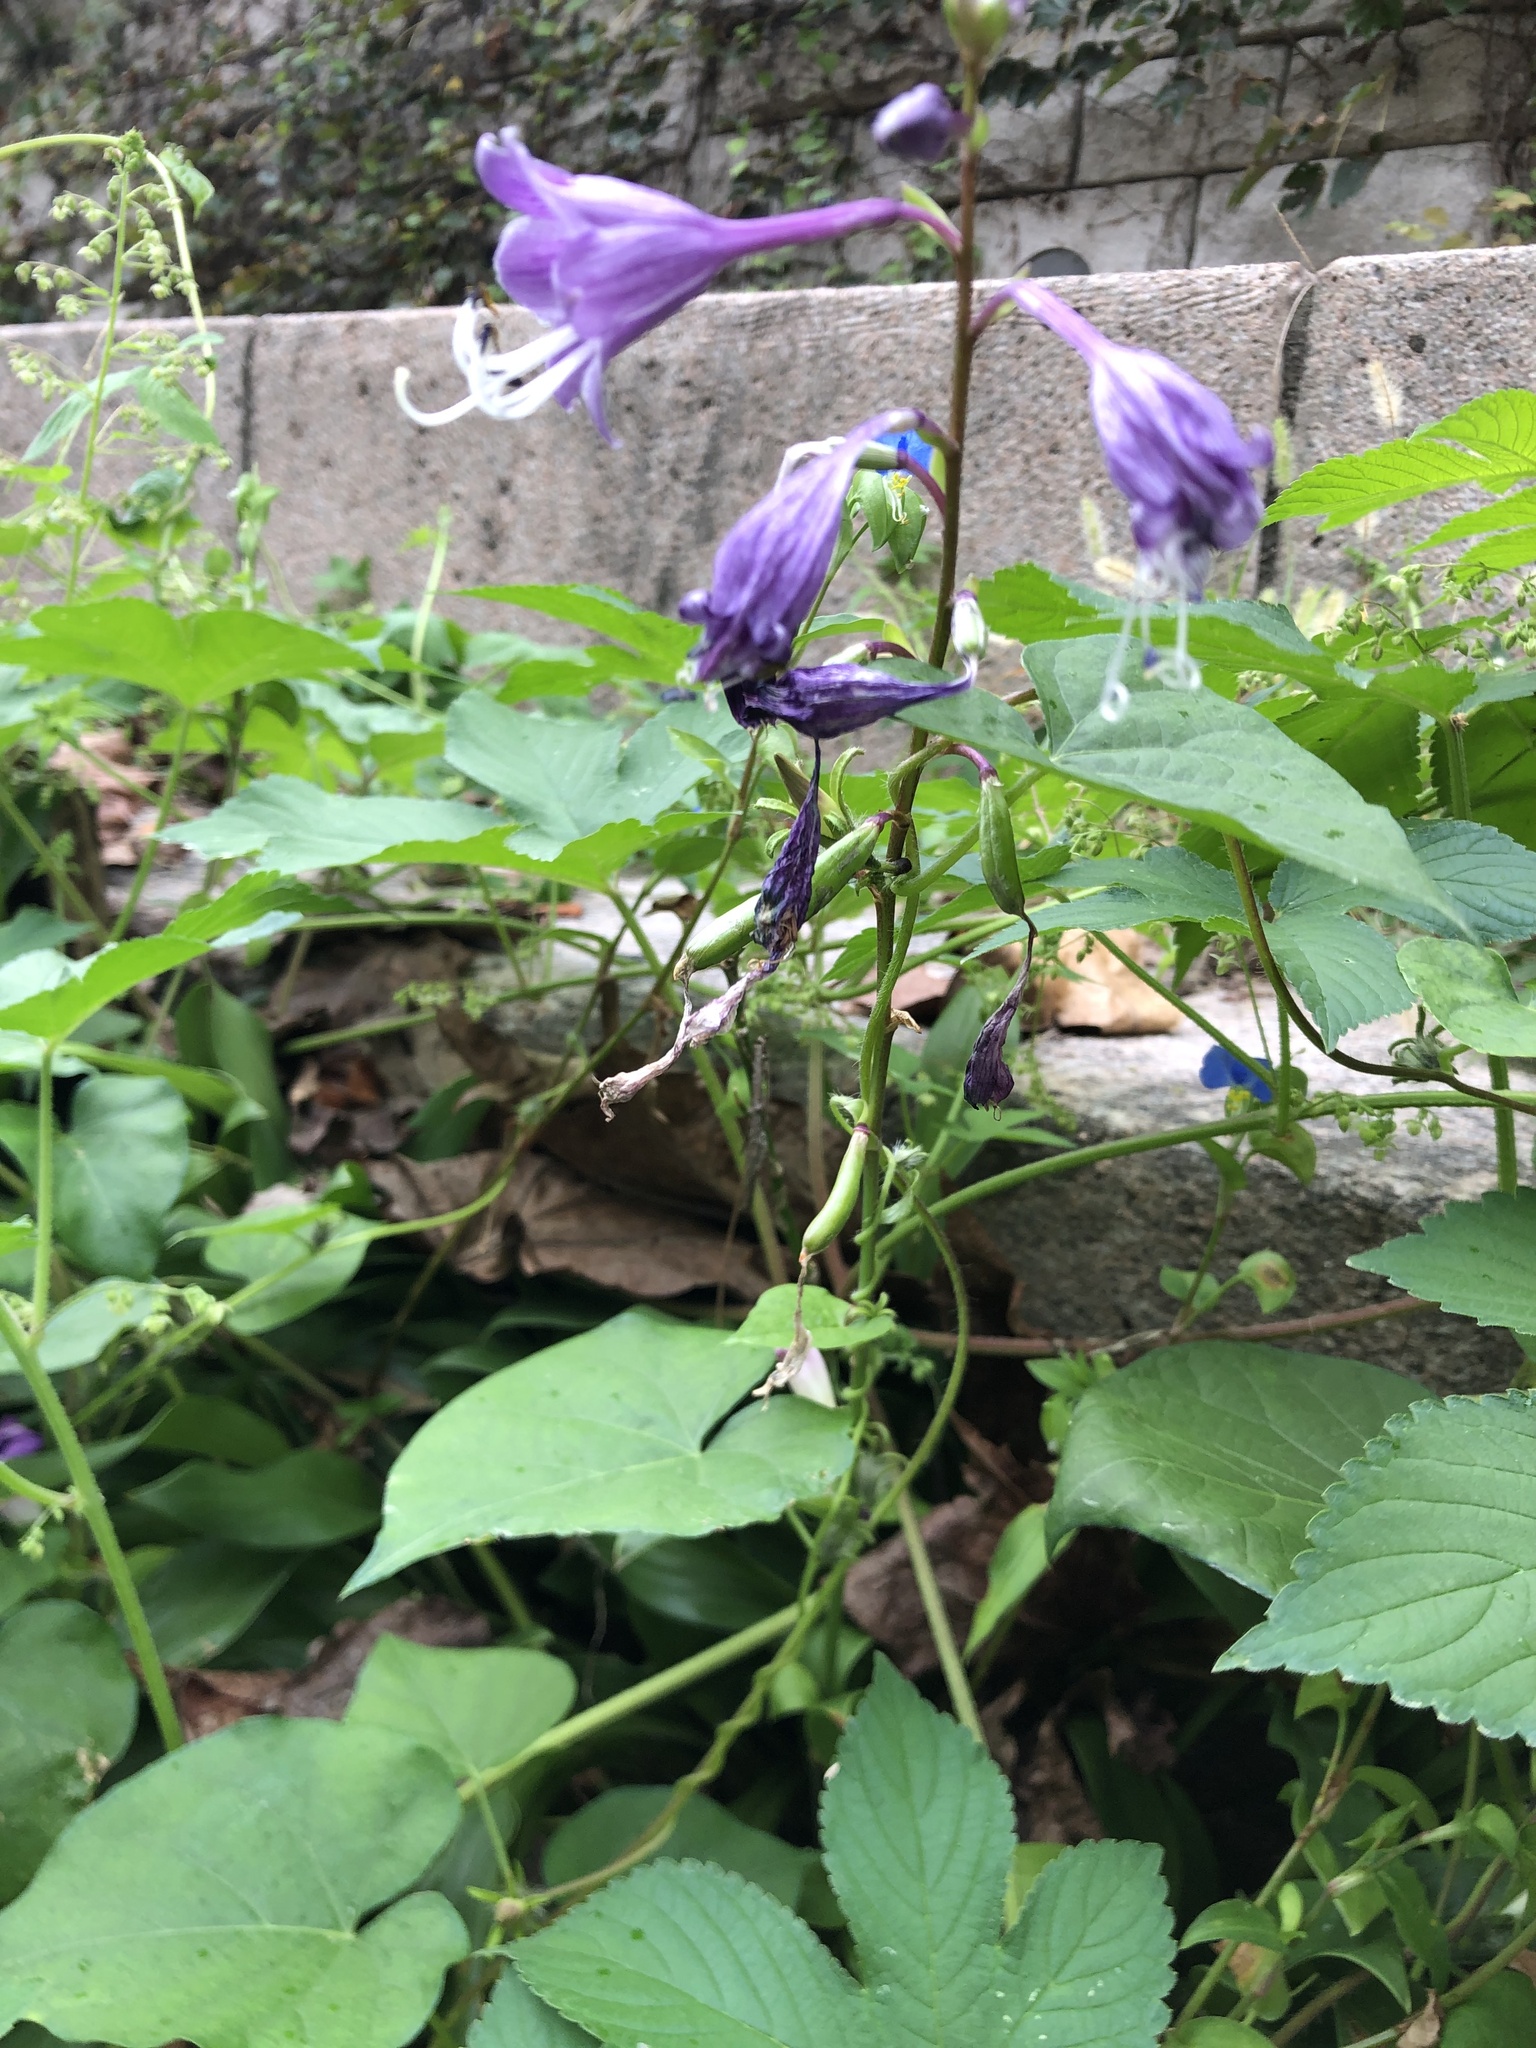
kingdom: Plantae
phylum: Tracheophyta
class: Liliopsida
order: Asparagales
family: Asparagaceae
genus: Hosta
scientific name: Hosta longipes
